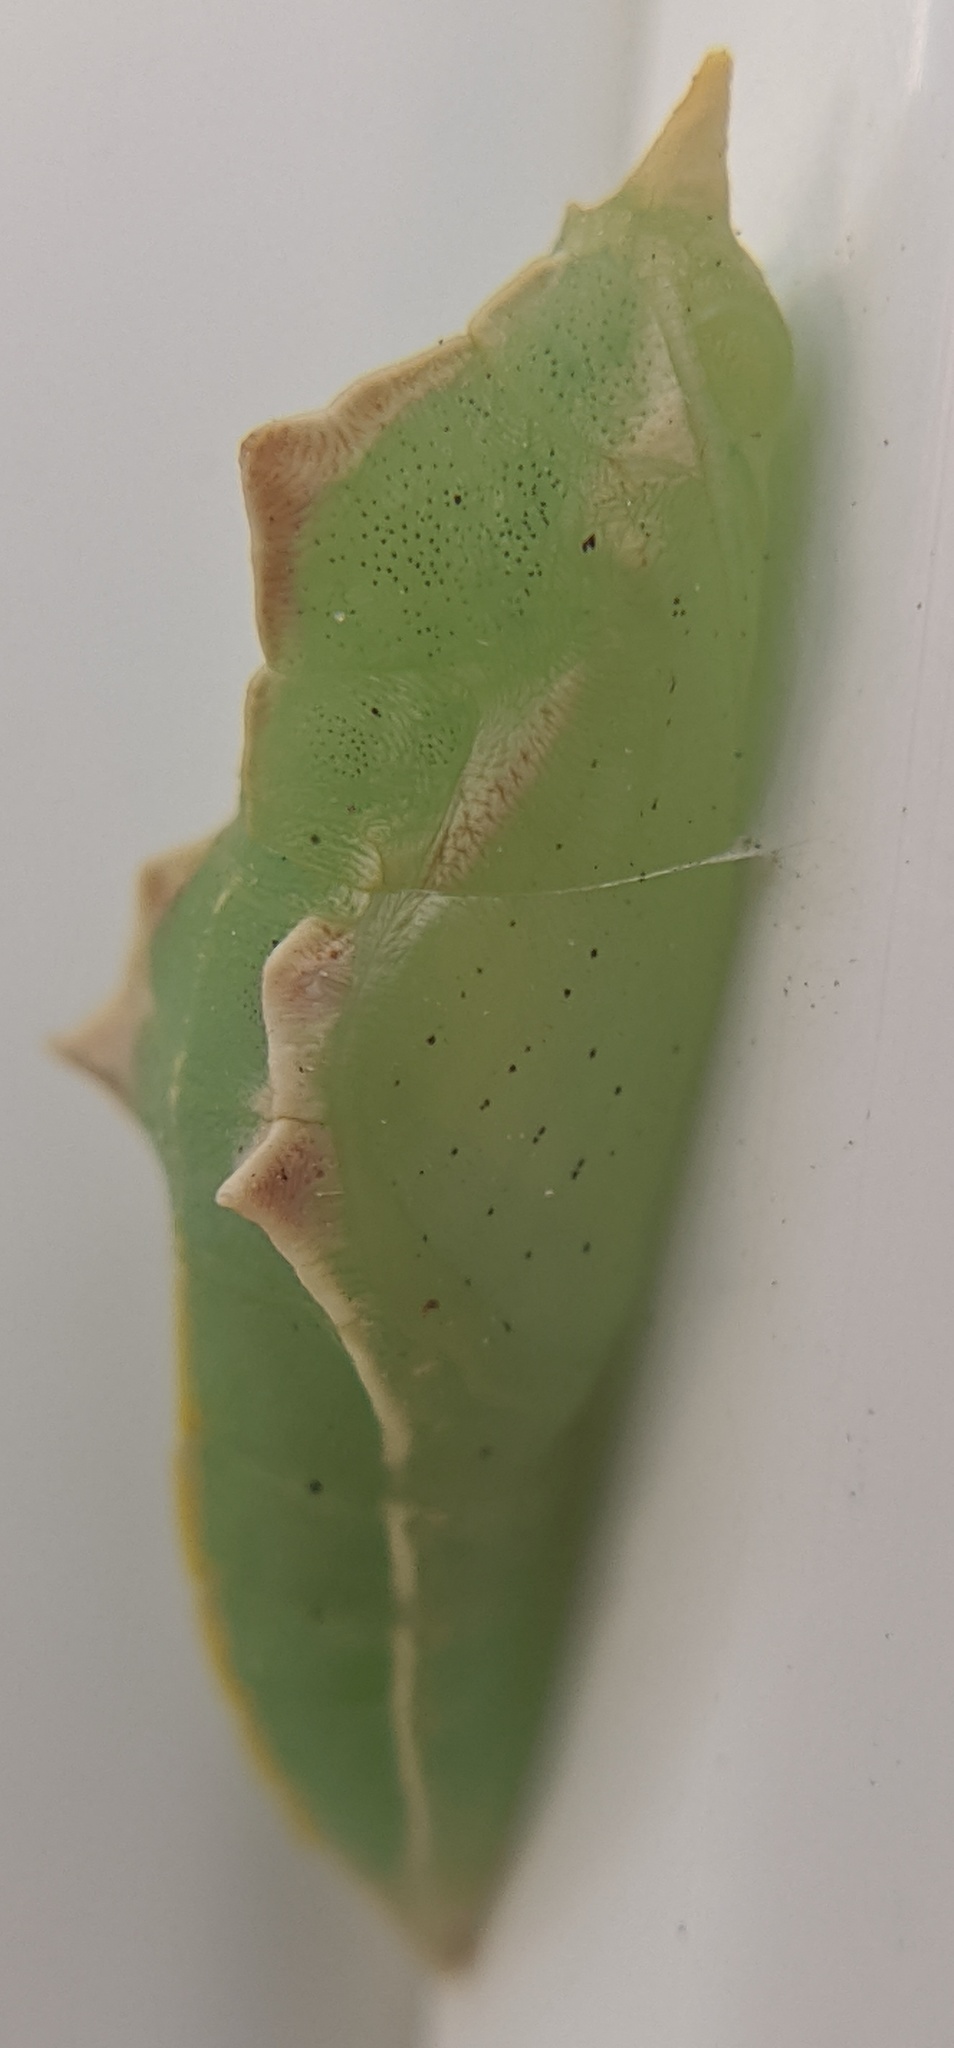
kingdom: Animalia
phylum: Arthropoda
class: Insecta
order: Lepidoptera
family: Pieridae
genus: Pieris
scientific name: Pieris rapae
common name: Small white
